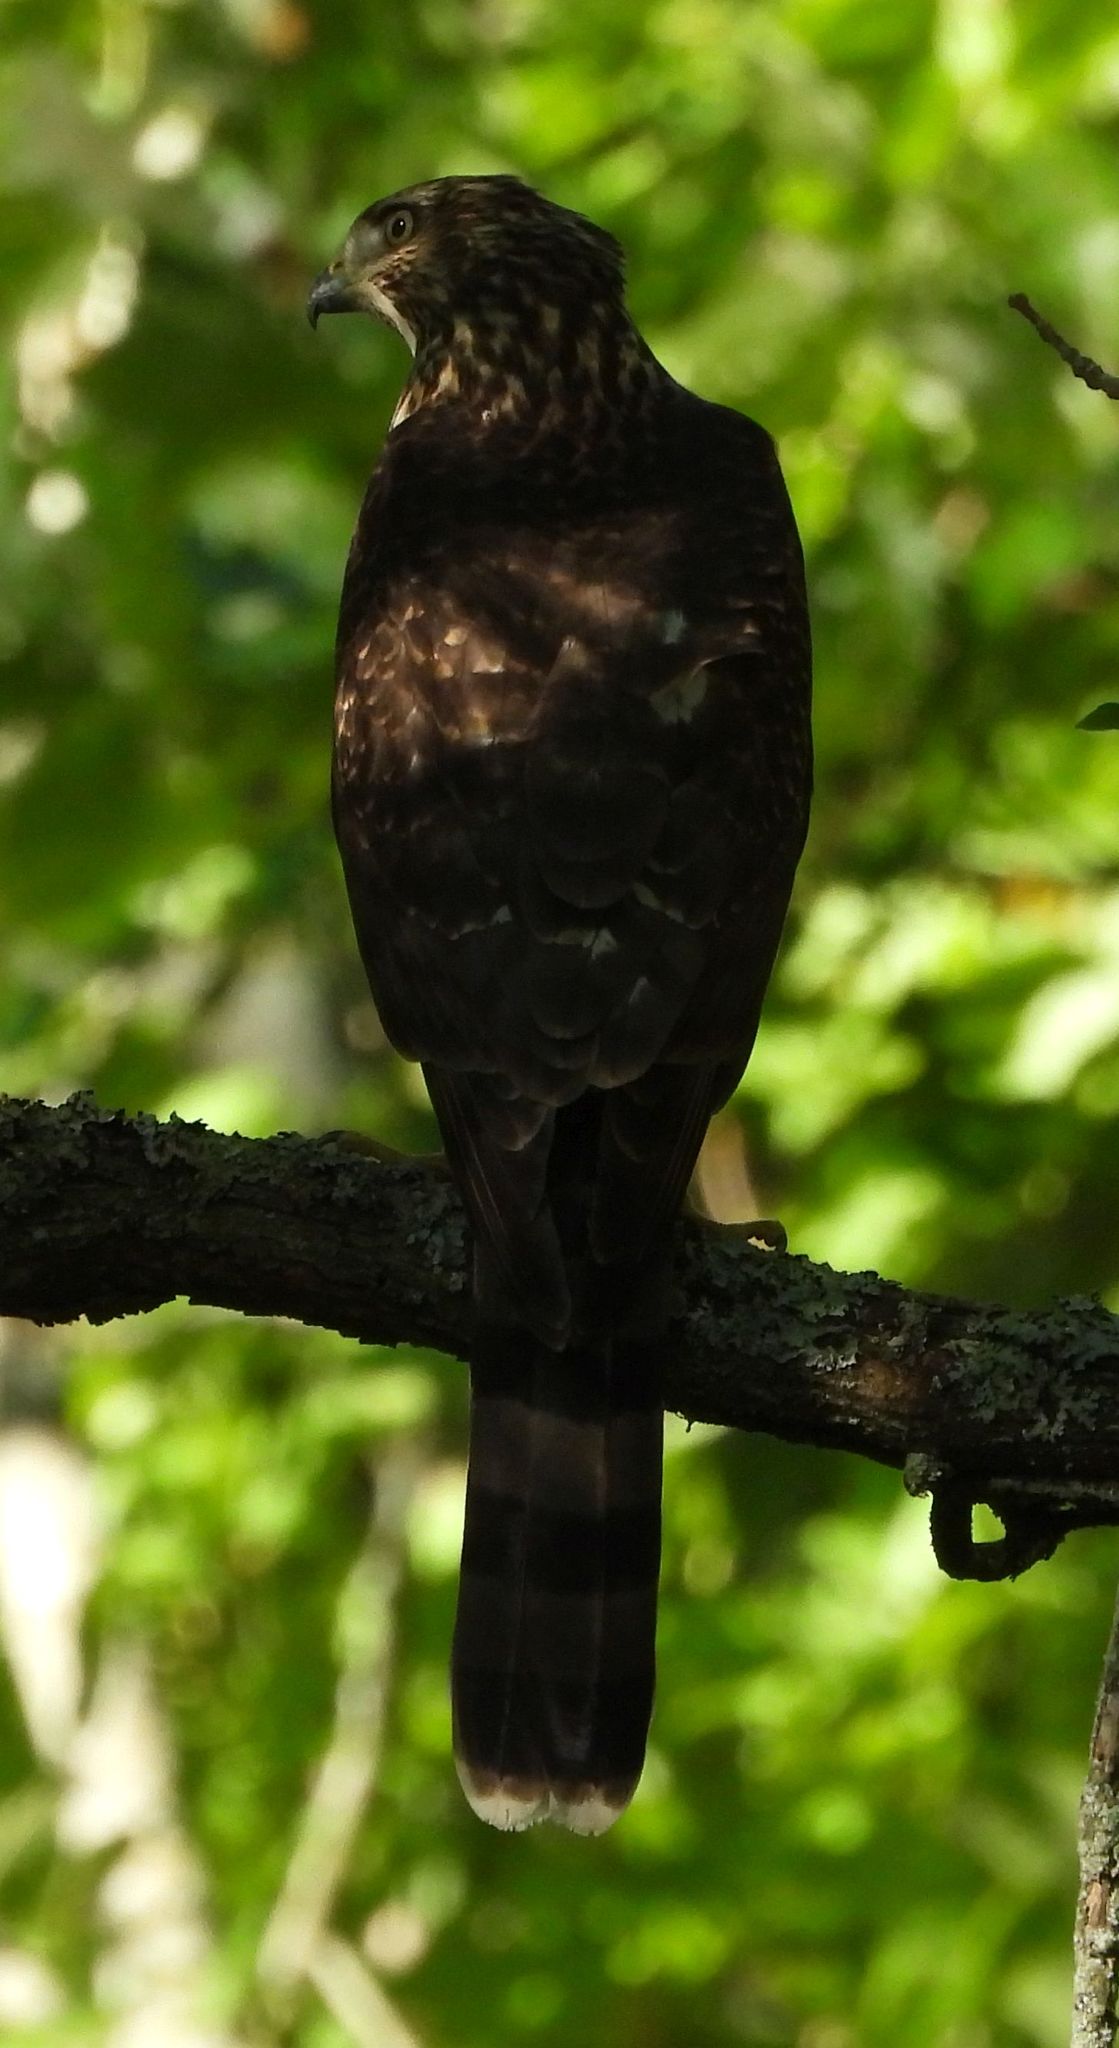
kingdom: Animalia
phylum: Chordata
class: Aves
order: Accipitriformes
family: Accipitridae
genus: Accipiter
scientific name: Accipiter cooperii
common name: Cooper's hawk
